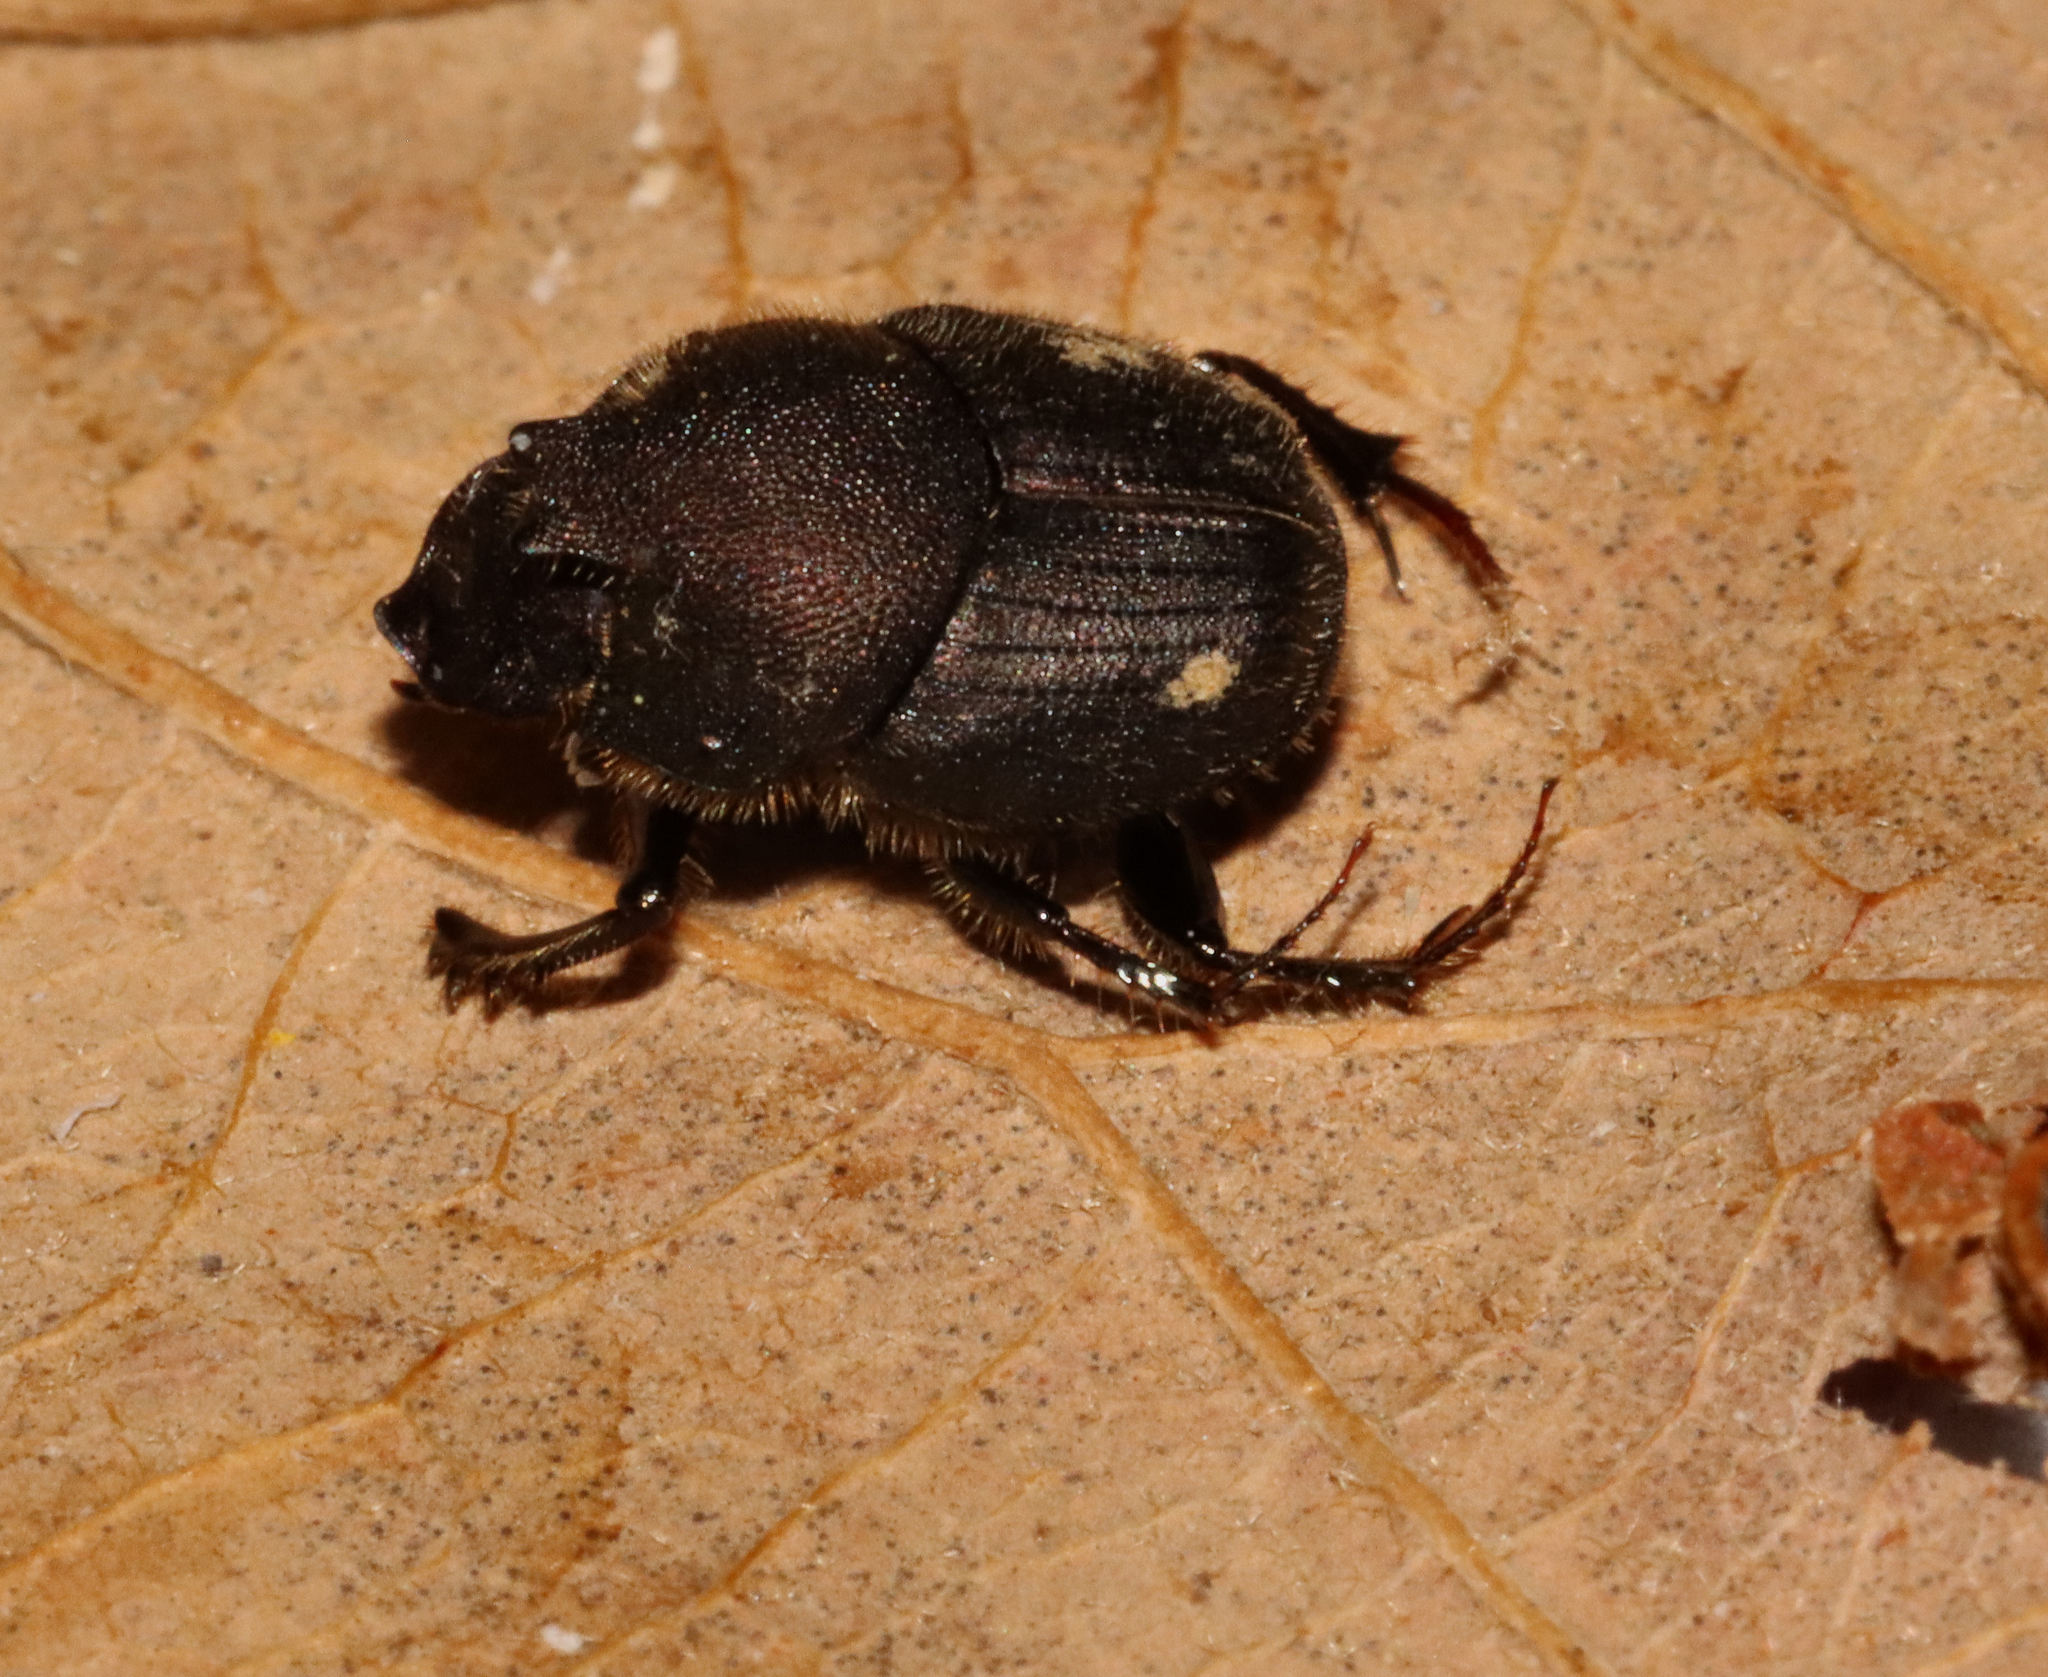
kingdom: Animalia
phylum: Arthropoda
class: Insecta
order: Coleoptera
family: Scarabaeidae
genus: Onthophagus
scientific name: Onthophagus hecate
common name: Scooped scarab
